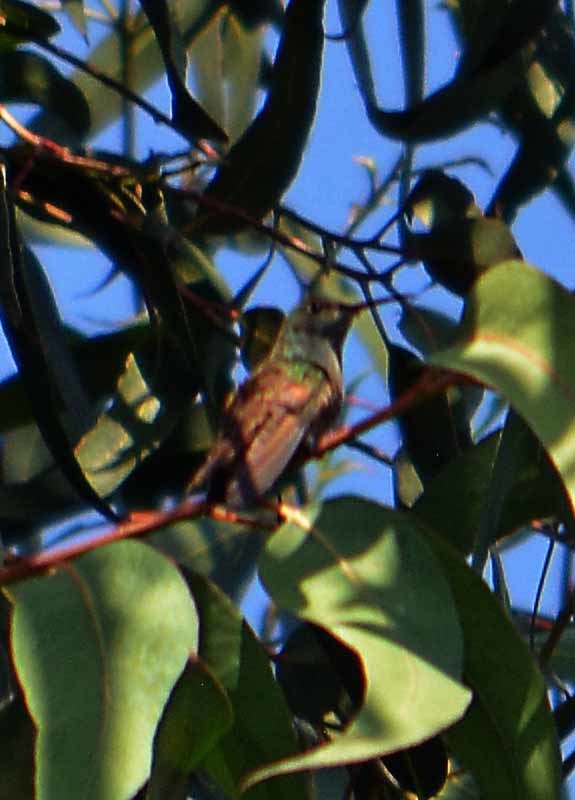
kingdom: Animalia
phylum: Chordata
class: Aves
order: Apodiformes
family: Trochilidae
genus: Saucerottia
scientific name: Saucerottia beryllina
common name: Berylline hummingbird
